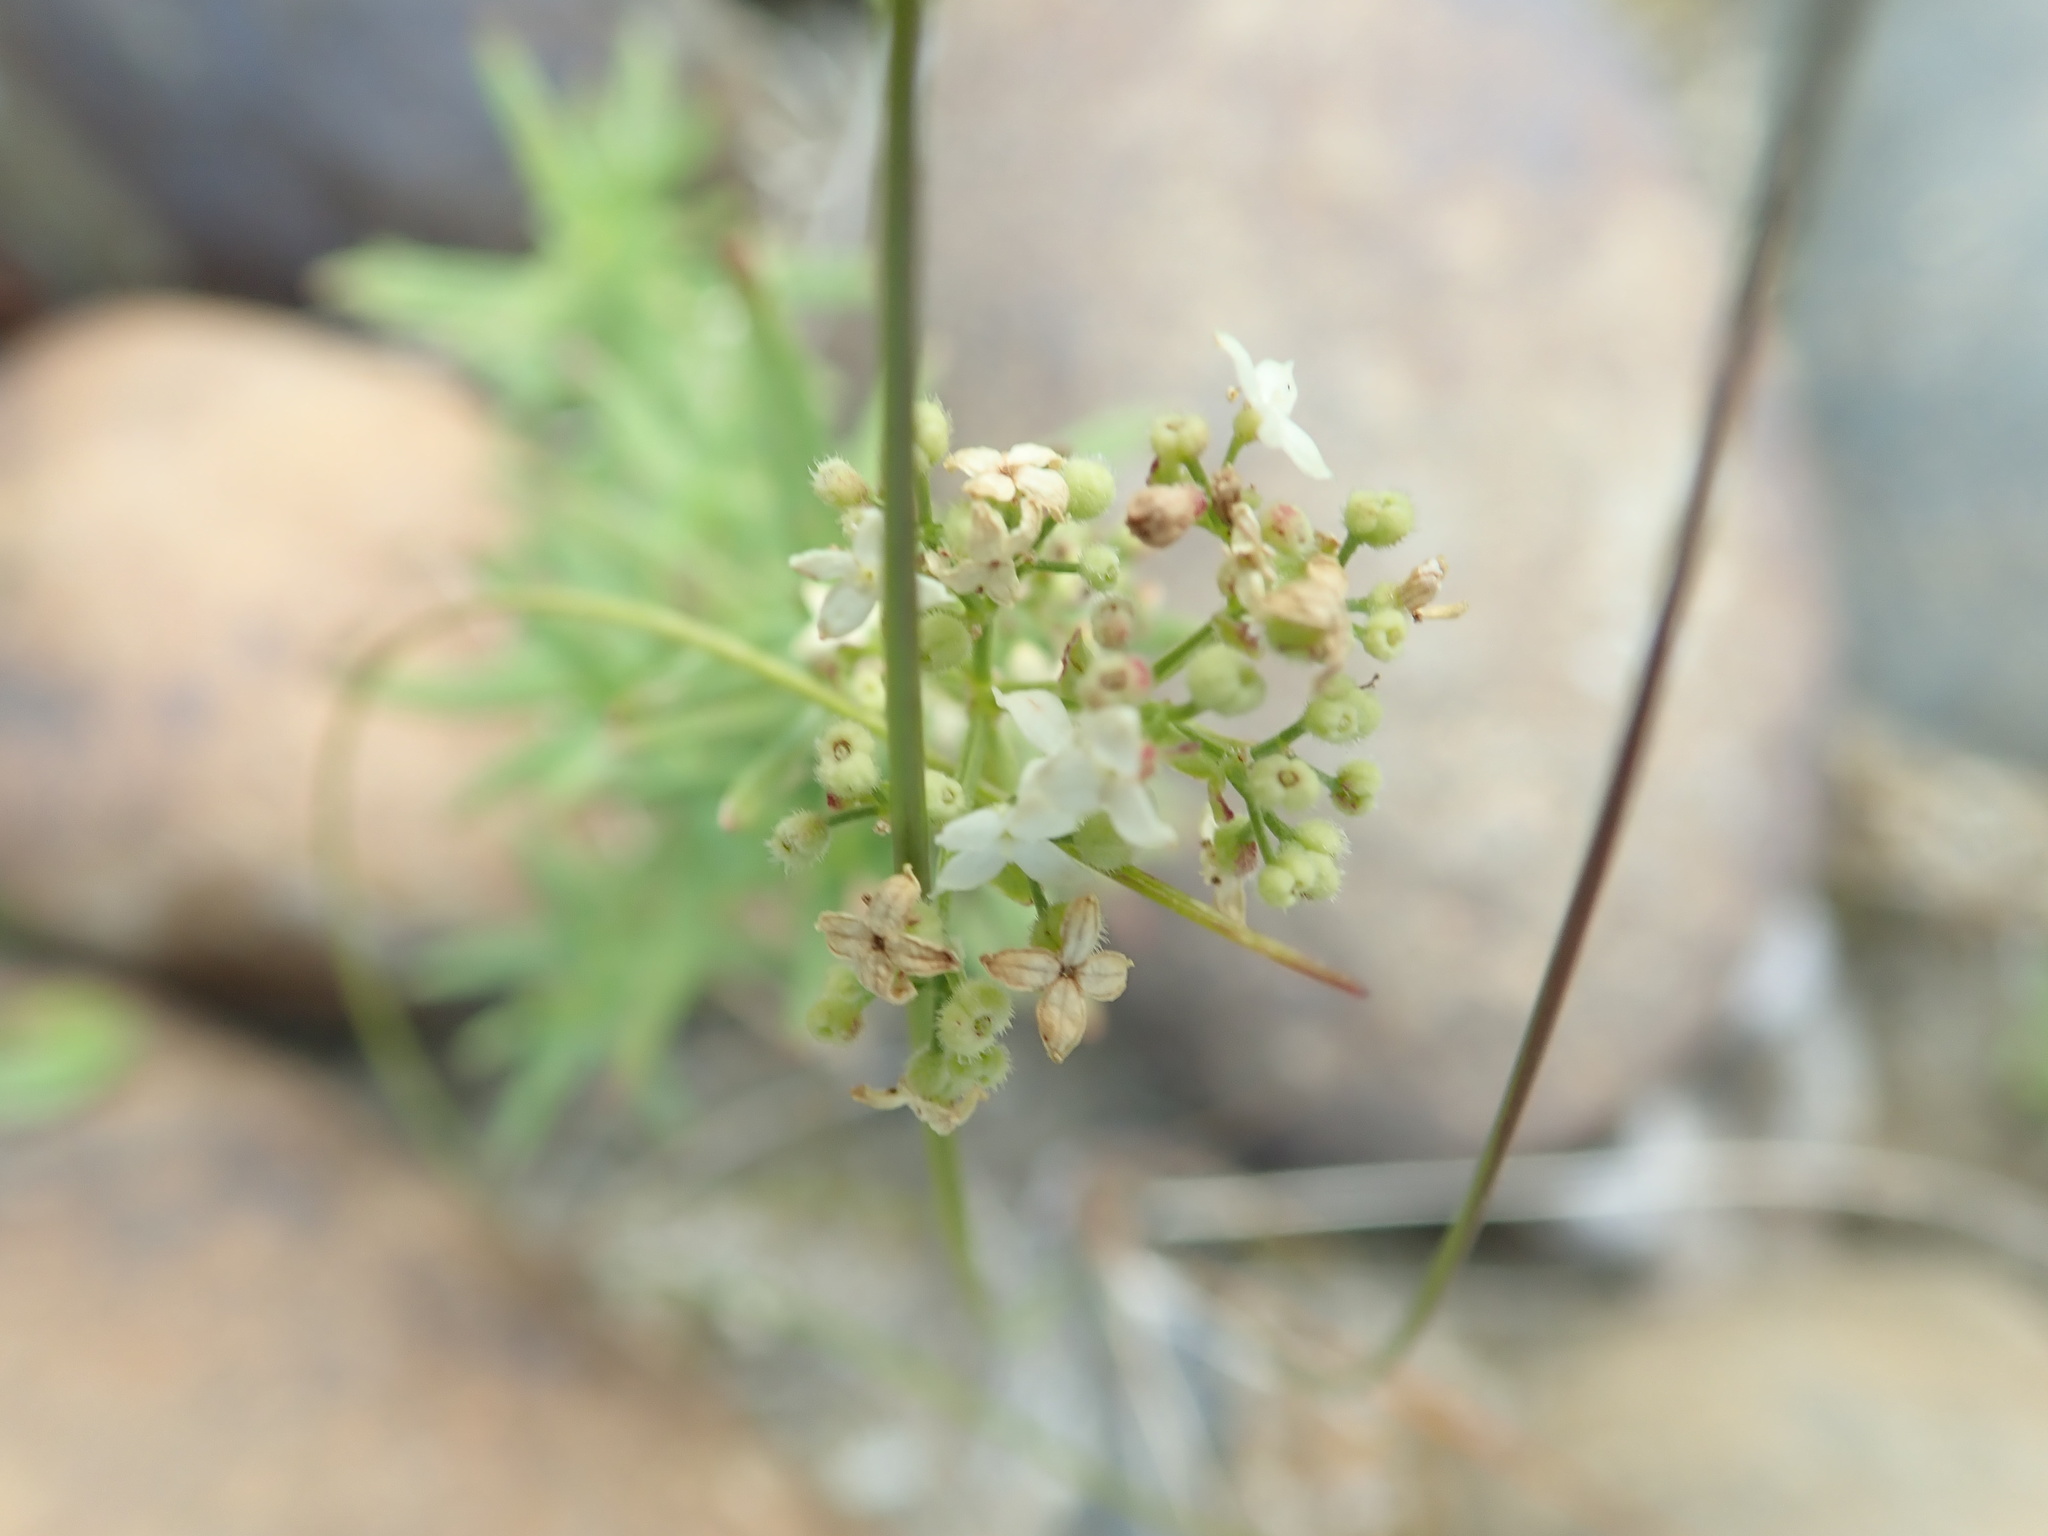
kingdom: Plantae
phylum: Tracheophyta
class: Magnoliopsida
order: Gentianales
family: Rubiaceae
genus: Galium
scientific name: Galium boreale
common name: Northern bedstraw
